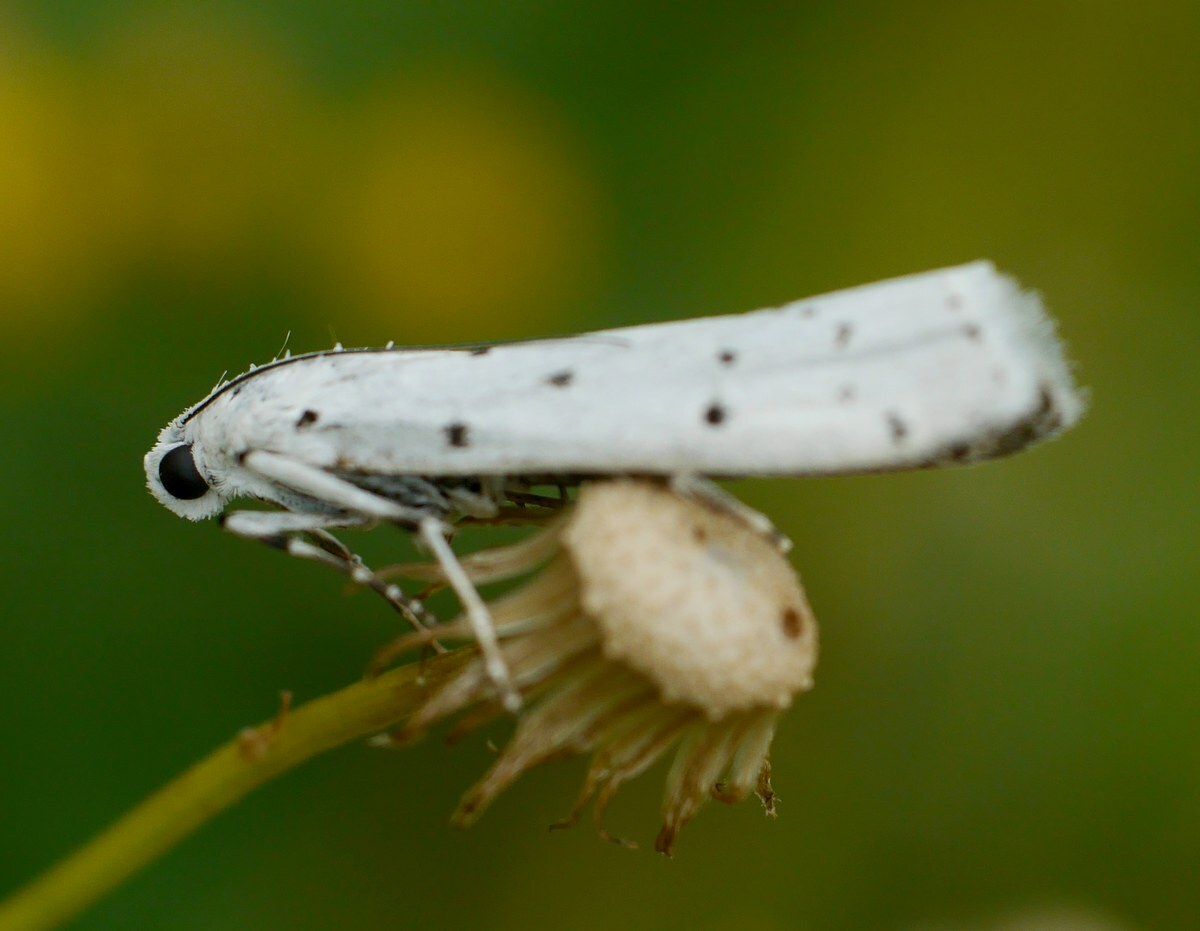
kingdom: Animalia
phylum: Arthropoda
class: Insecta
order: Lepidoptera
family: Pyralidae
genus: Myelois
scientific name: Myelois circumvoluta
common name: Thistle ermine
